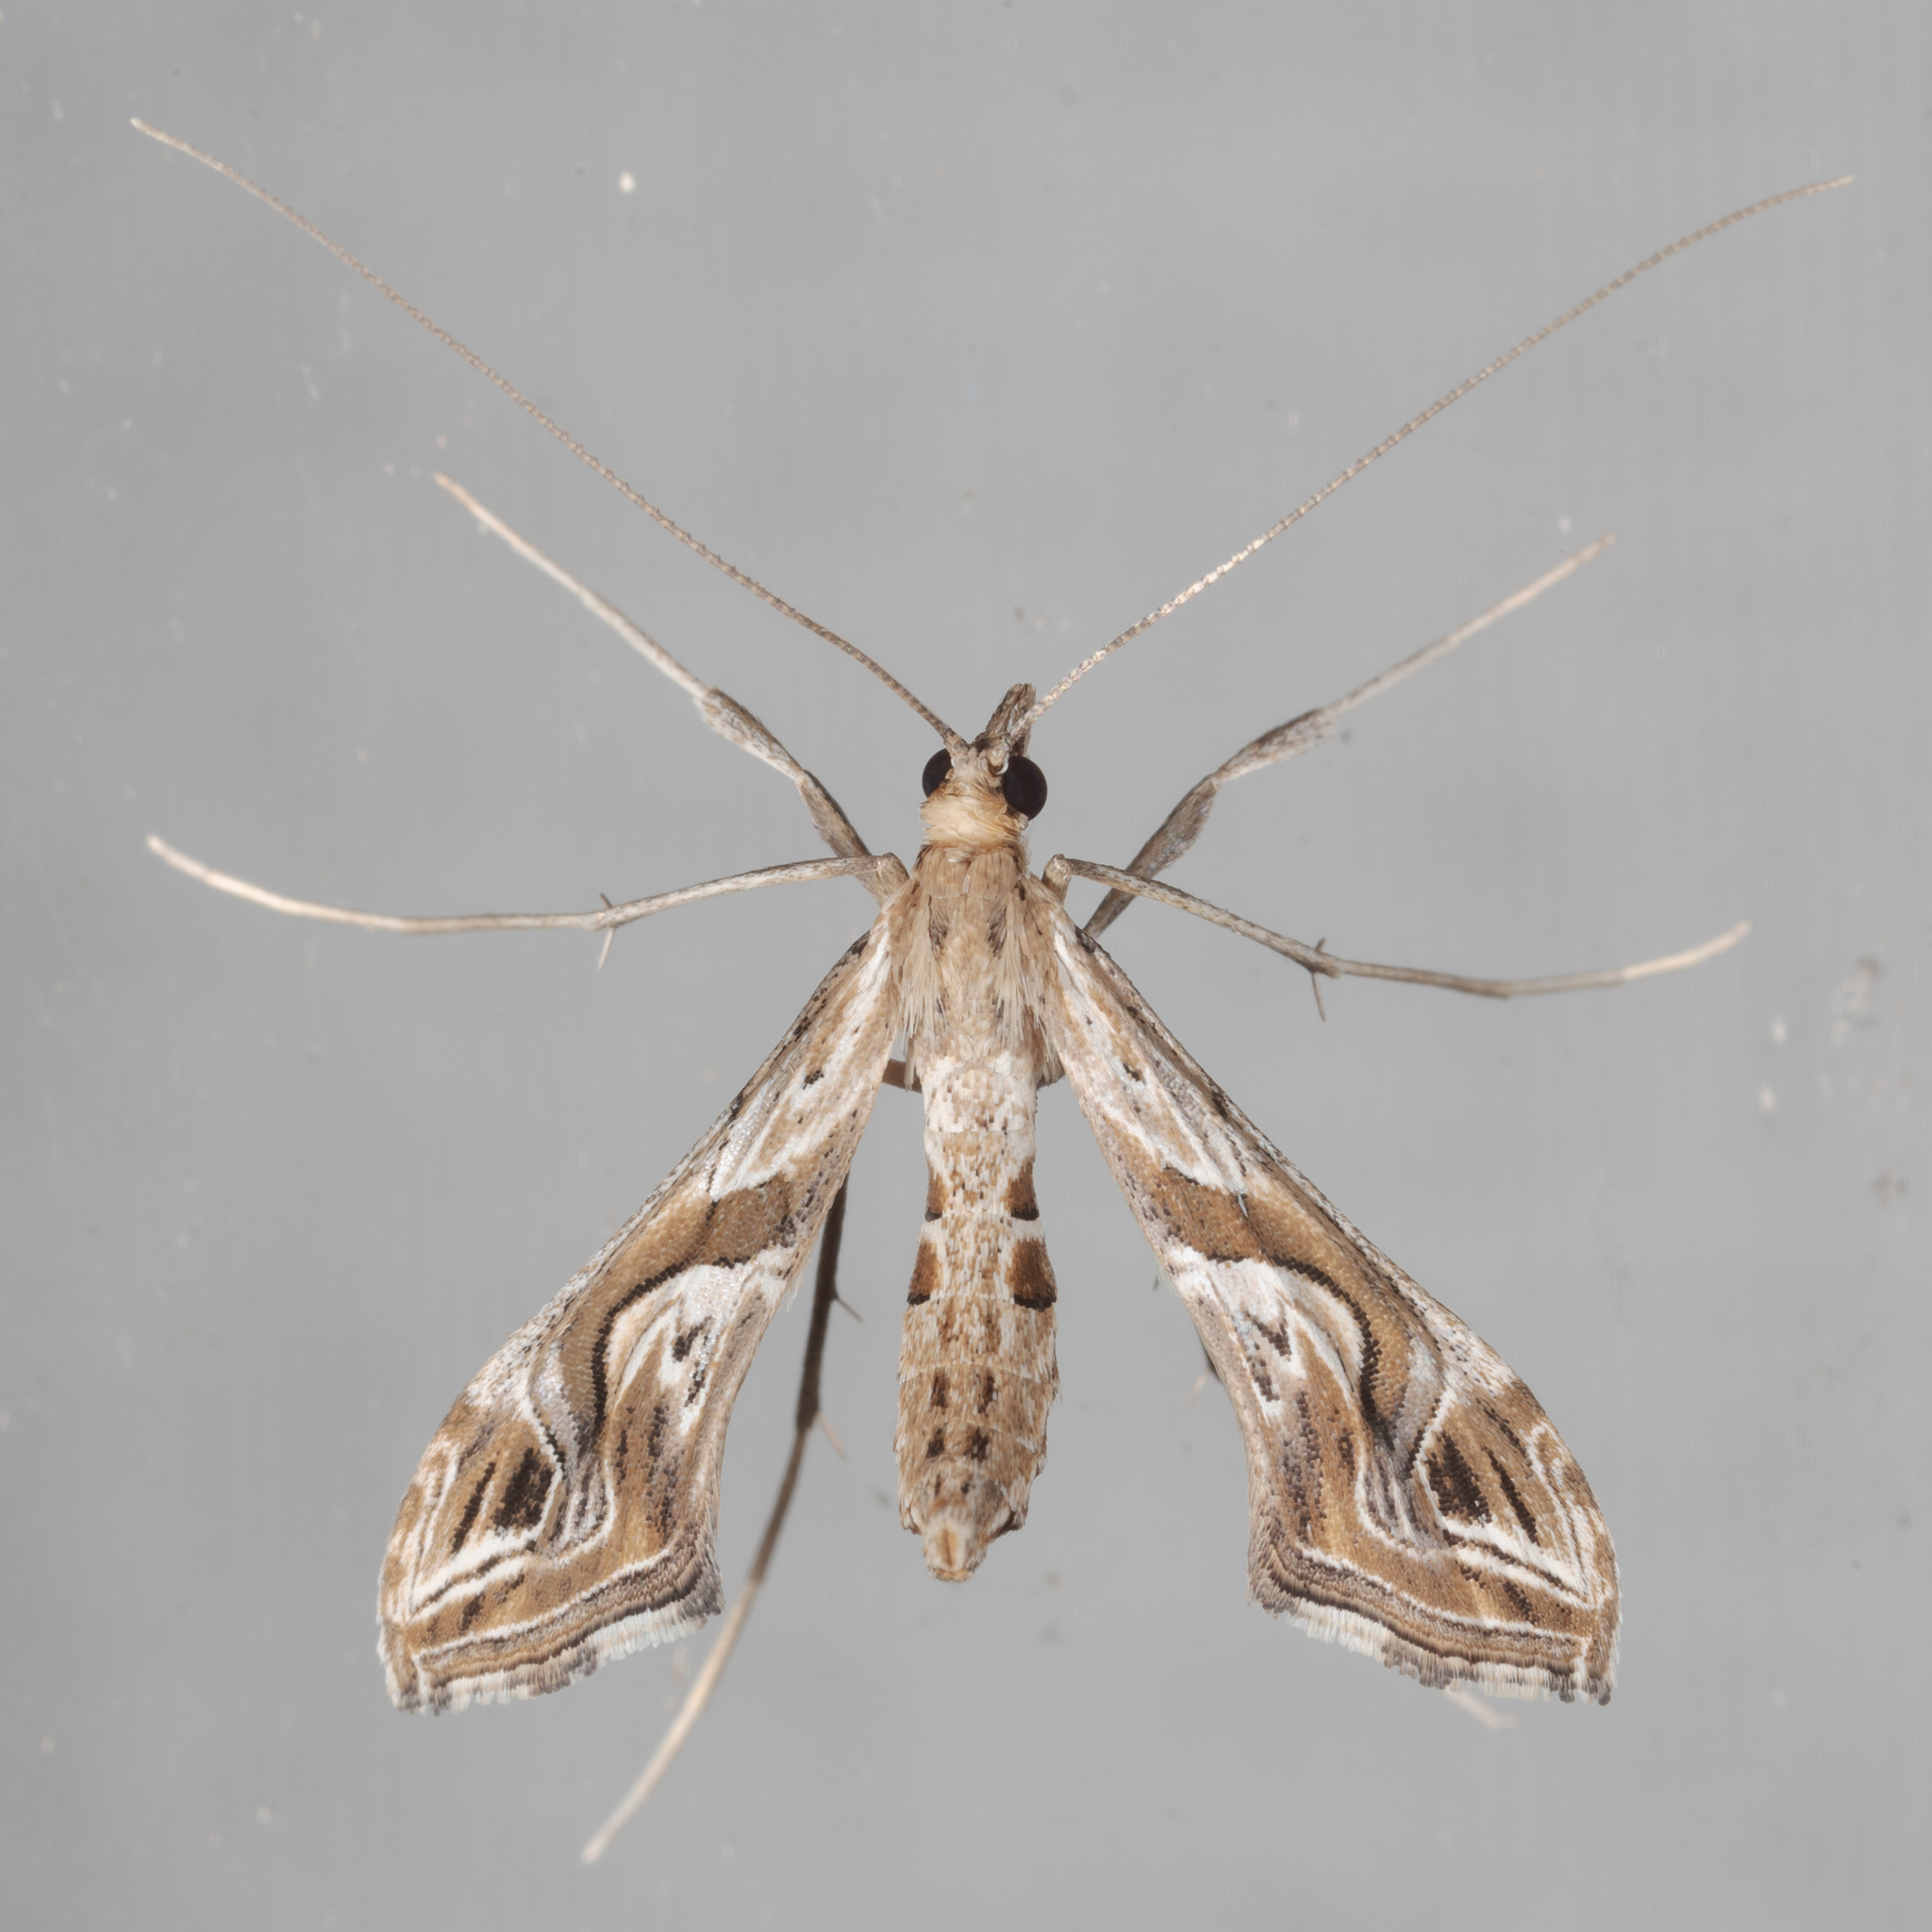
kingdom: Animalia
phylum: Arthropoda
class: Insecta
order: Lepidoptera
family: Crambidae
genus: Lineodes
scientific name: Lineodes integra
